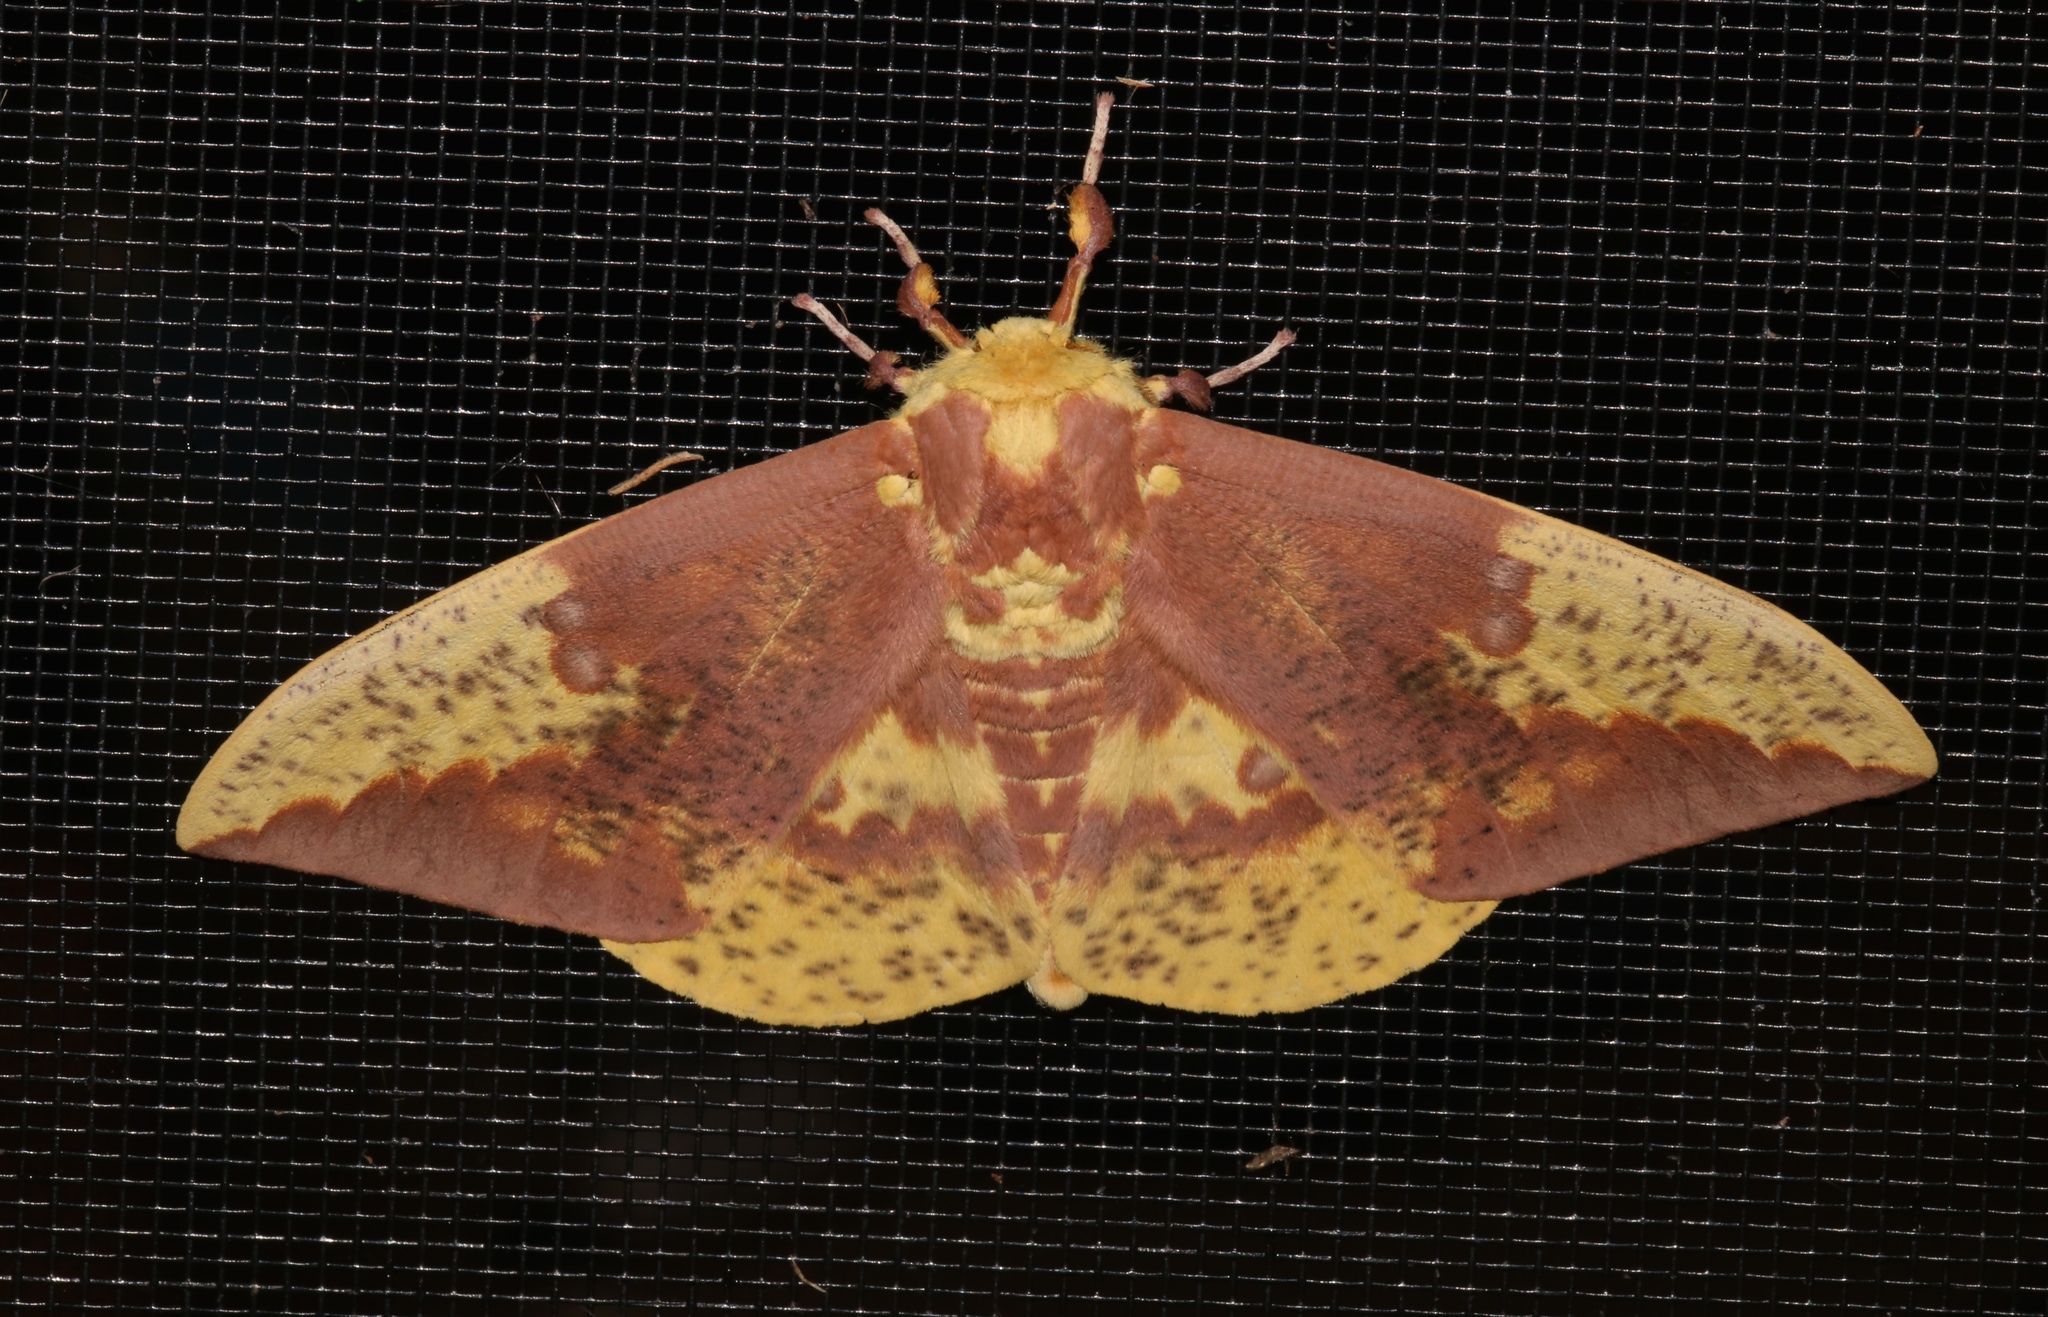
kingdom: Animalia
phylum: Arthropoda
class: Insecta
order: Lepidoptera
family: Saturniidae
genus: Eacles
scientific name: Eacles imperialis
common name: Imperial moth
